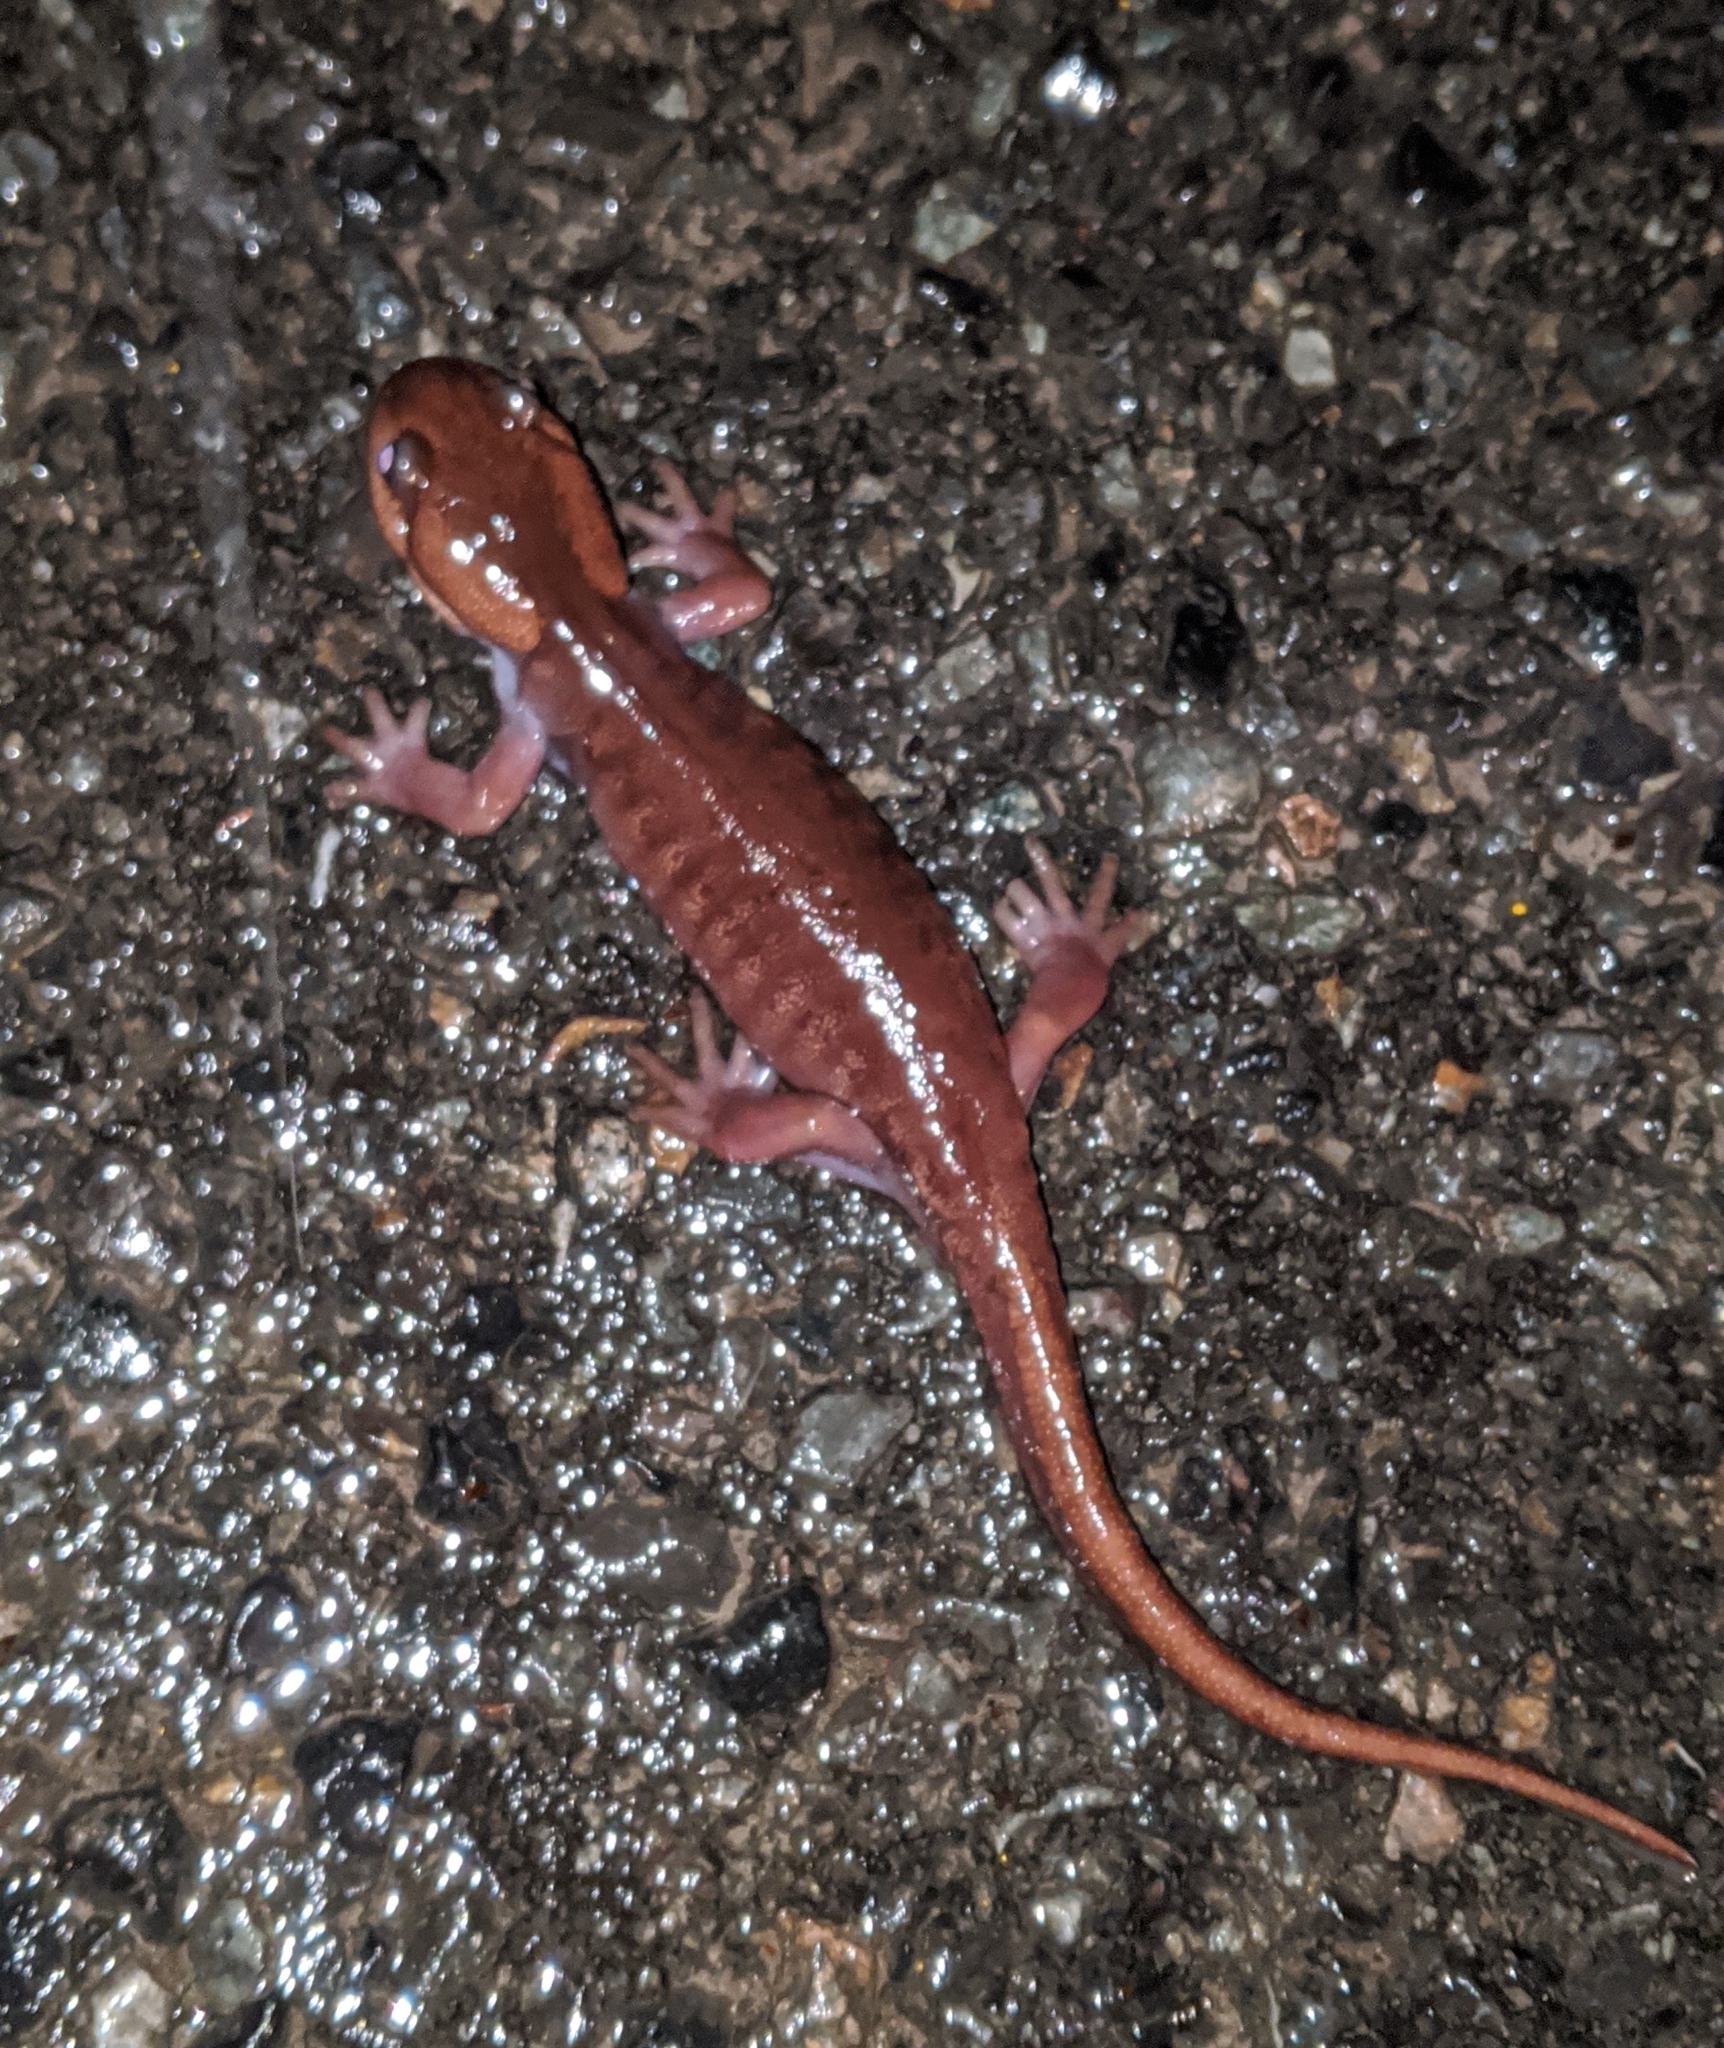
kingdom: Animalia
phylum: Chordata
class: Amphibia
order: Caudata
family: Ambystomatidae
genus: Ambystoma
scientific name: Ambystoma gracile
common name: Northwestern salamander
